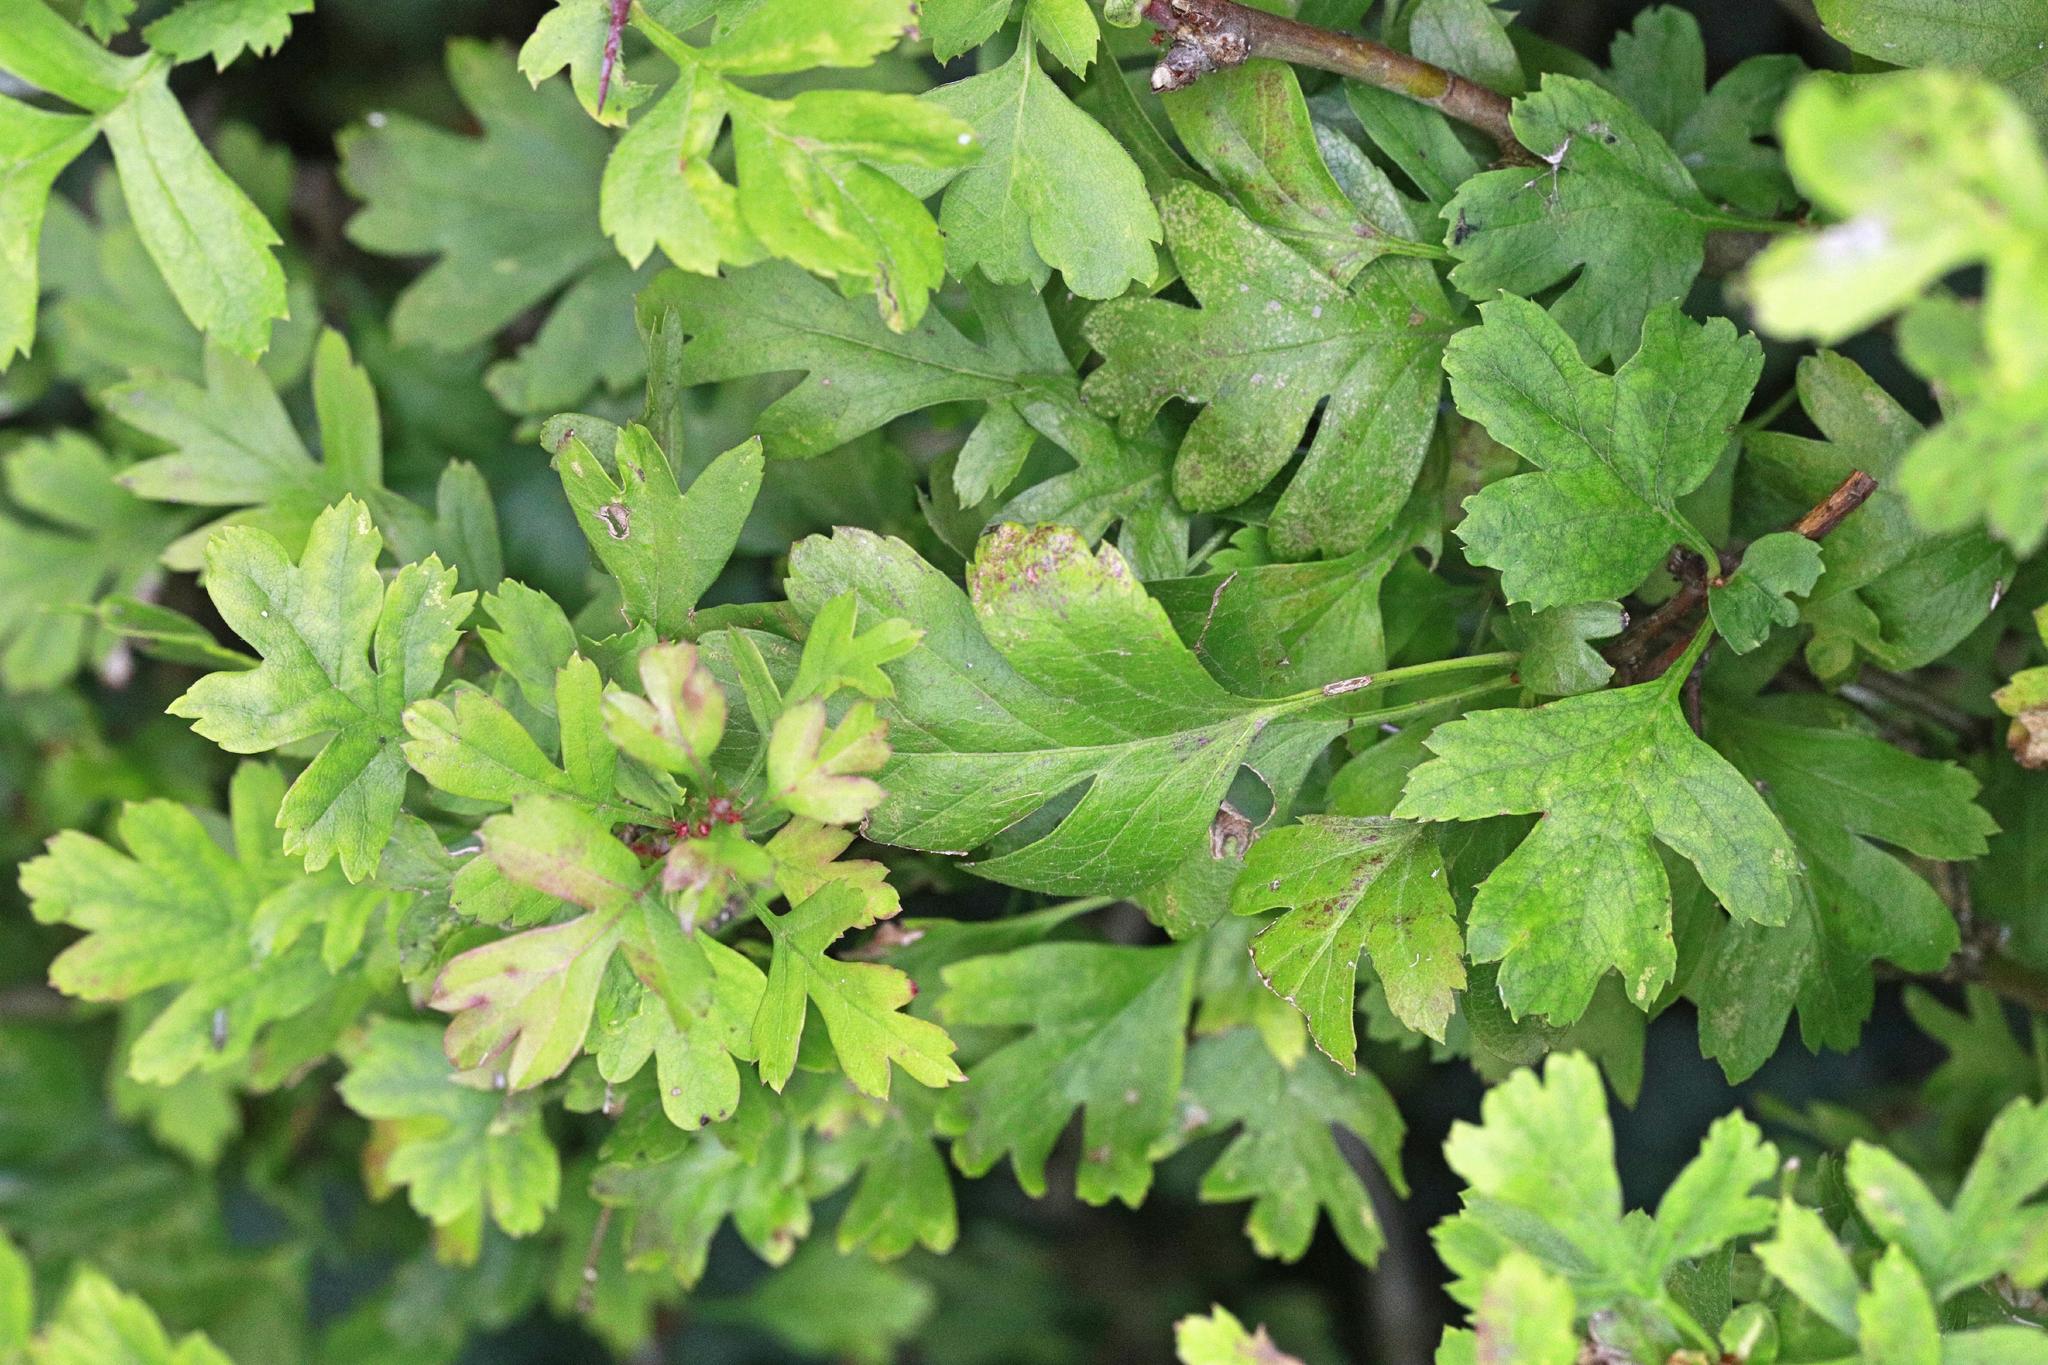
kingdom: Plantae
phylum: Tracheophyta
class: Magnoliopsida
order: Rosales
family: Rosaceae
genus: Crataegus
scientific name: Crataegus monogyna
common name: Hawthorn
